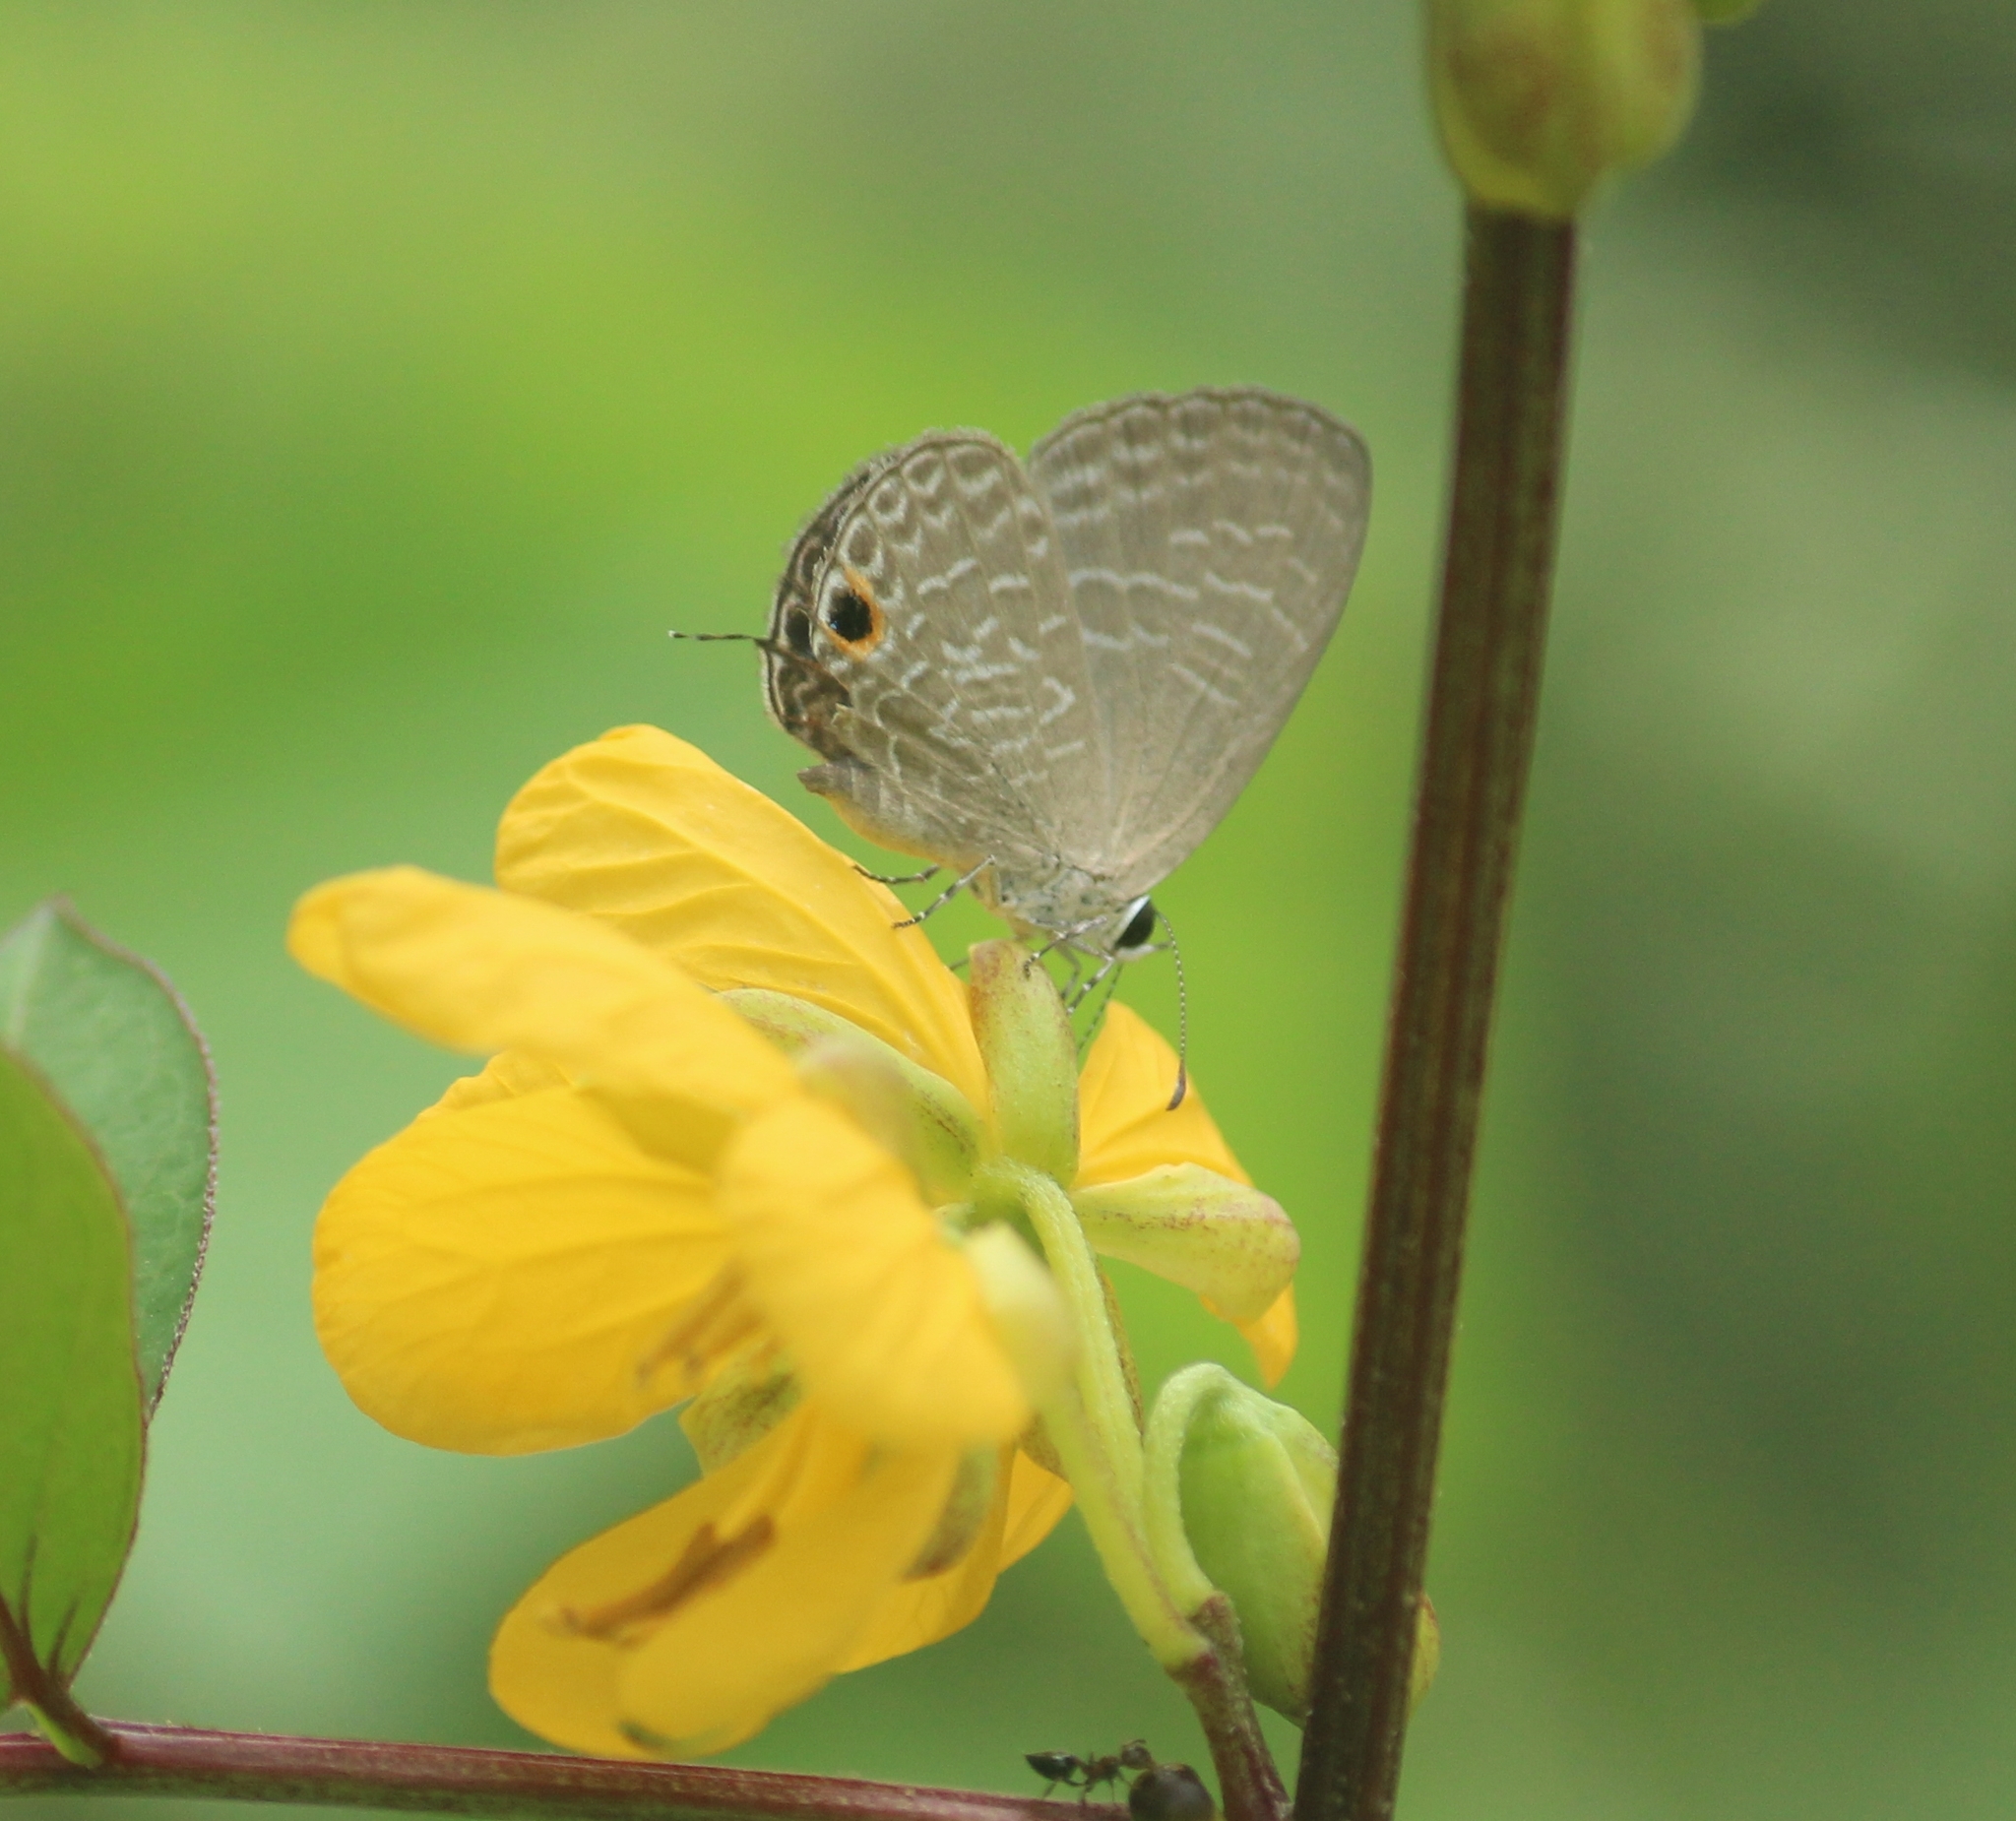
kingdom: Animalia
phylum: Arthropoda
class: Insecta
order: Lepidoptera
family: Lycaenidae
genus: Jamides
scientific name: Jamides bochus
